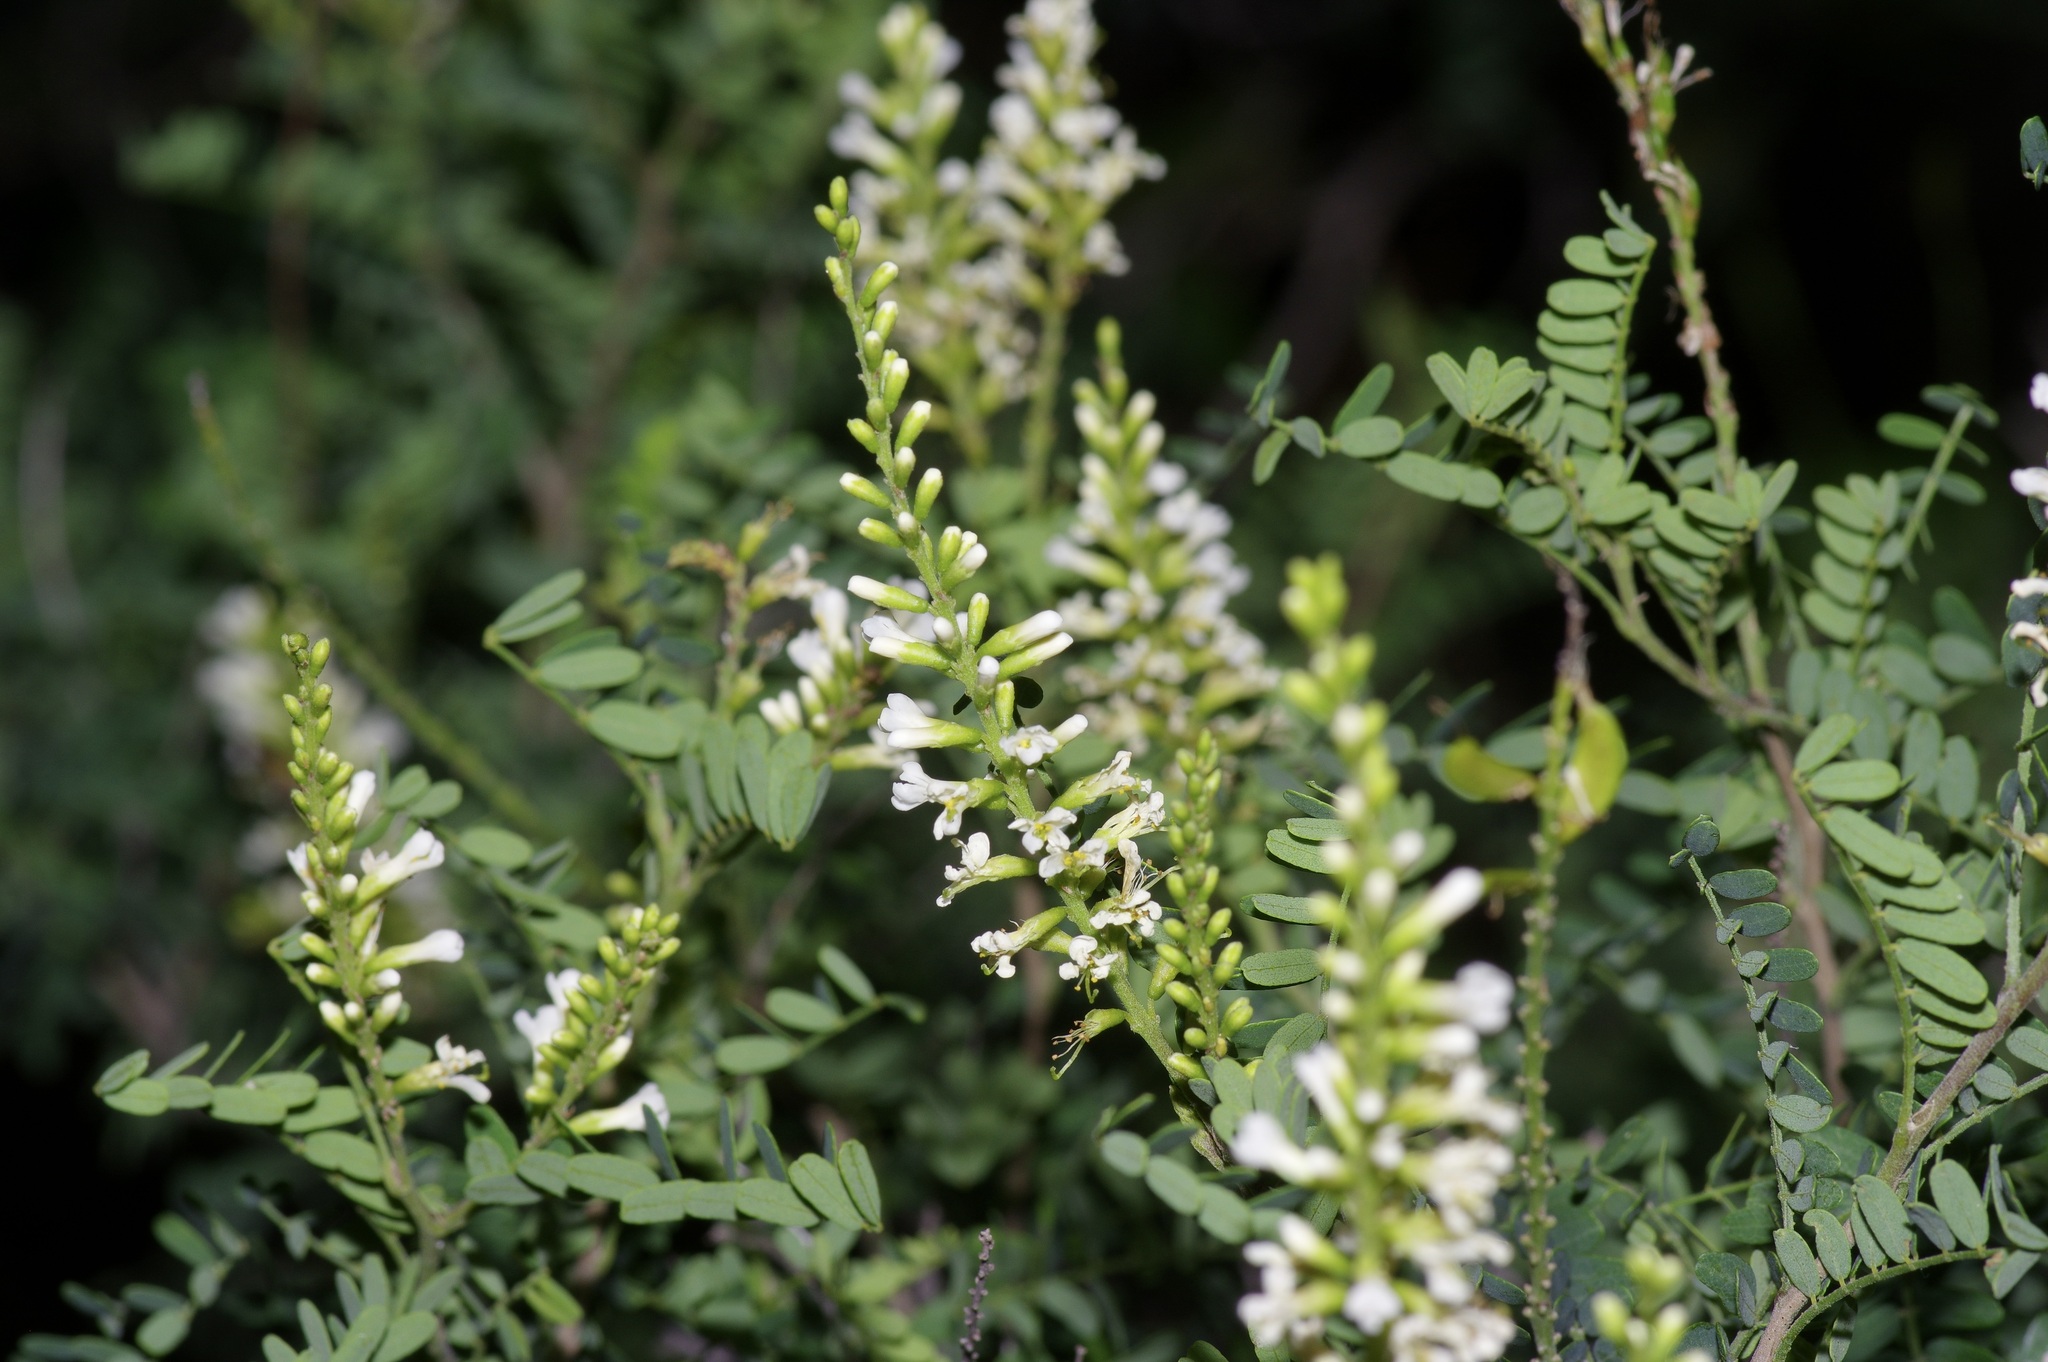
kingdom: Plantae
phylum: Tracheophyta
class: Magnoliopsida
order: Fabales
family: Fabaceae
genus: Eysenhardtia
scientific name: Eysenhardtia texana
